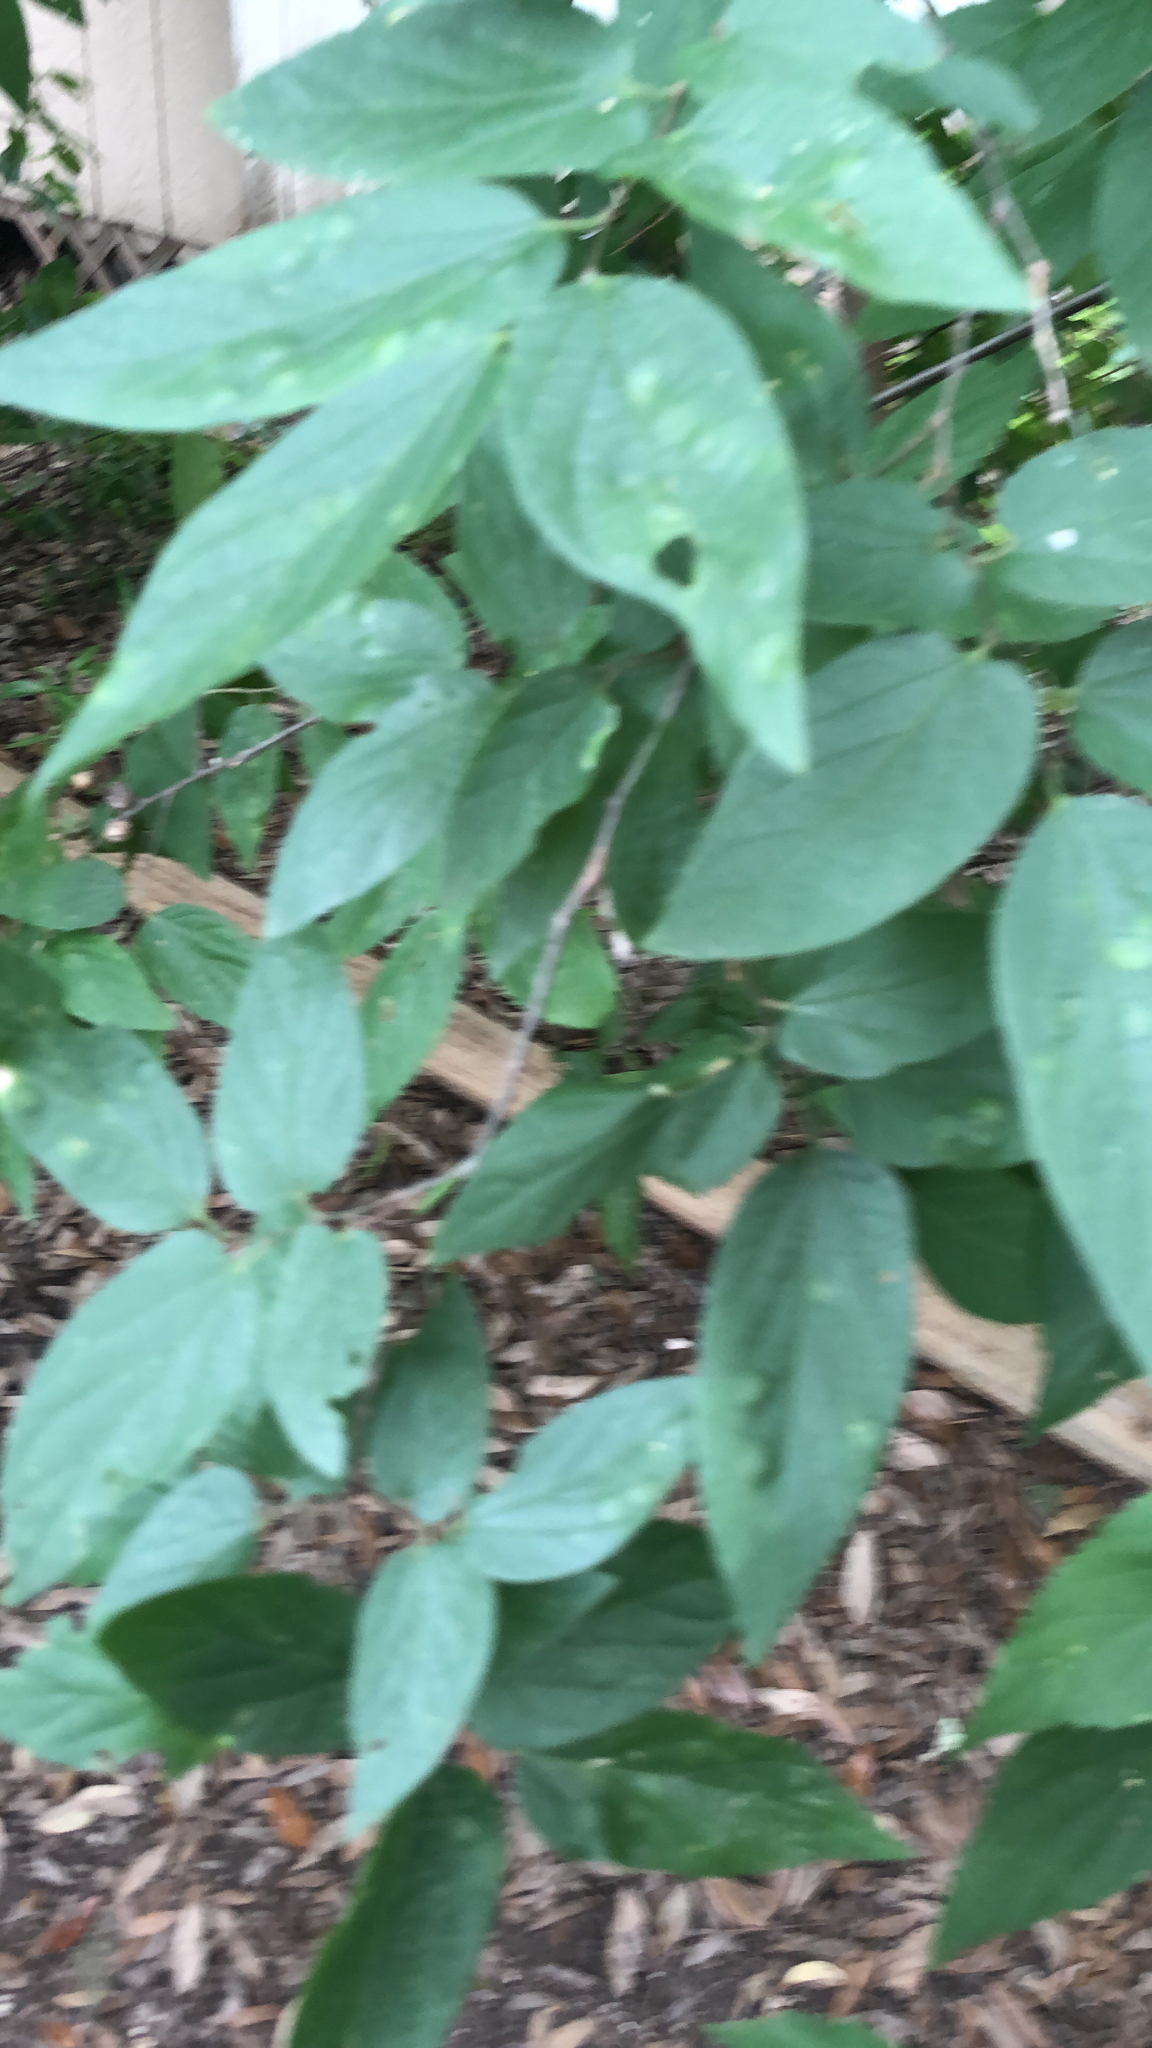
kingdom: Plantae
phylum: Tracheophyta
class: Magnoliopsida
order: Rosales
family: Cannabaceae
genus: Celtis
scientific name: Celtis laevigata
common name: Sugarberry
